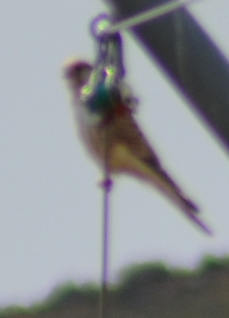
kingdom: Animalia
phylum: Chordata
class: Aves
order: Falconiformes
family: Falconidae
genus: Falco
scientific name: Falco tinnunculus
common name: Common kestrel
